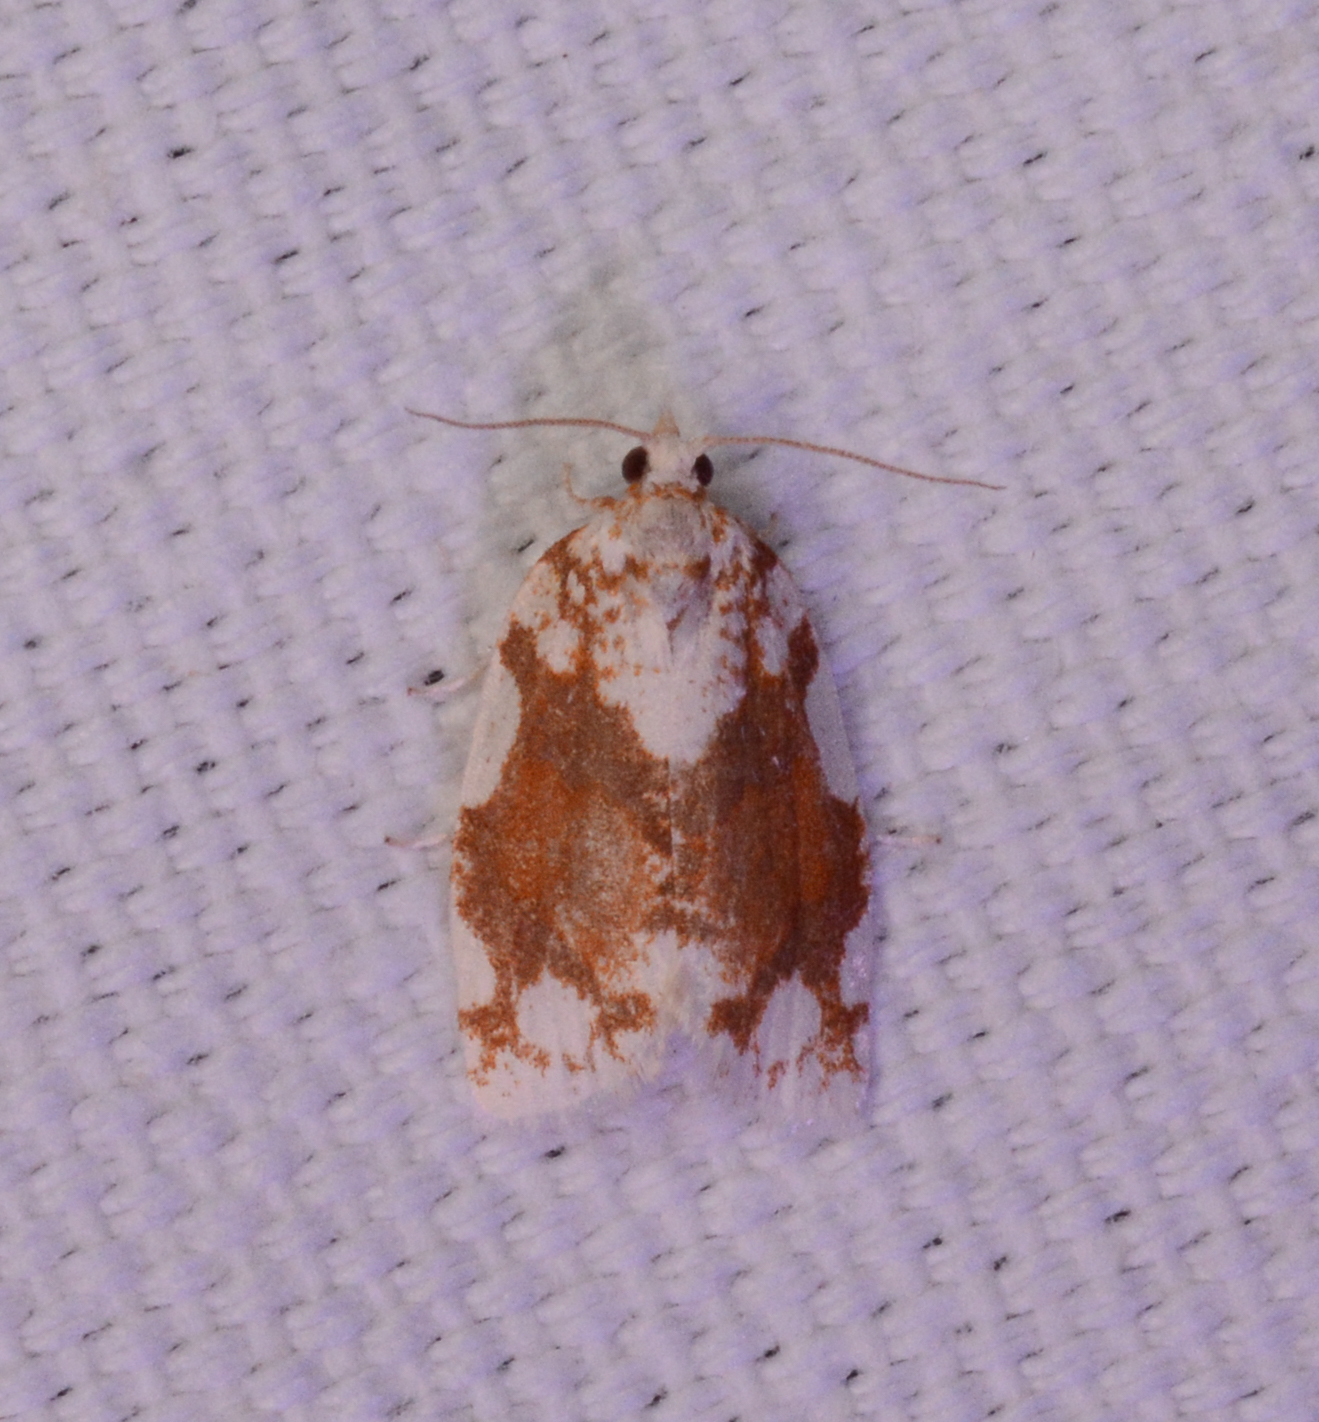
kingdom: Animalia
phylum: Arthropoda
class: Insecta
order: Lepidoptera
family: Tortricidae
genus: Argyrotaenia
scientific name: Argyrotaenia alisellana
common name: White-spotted leafroller moth
